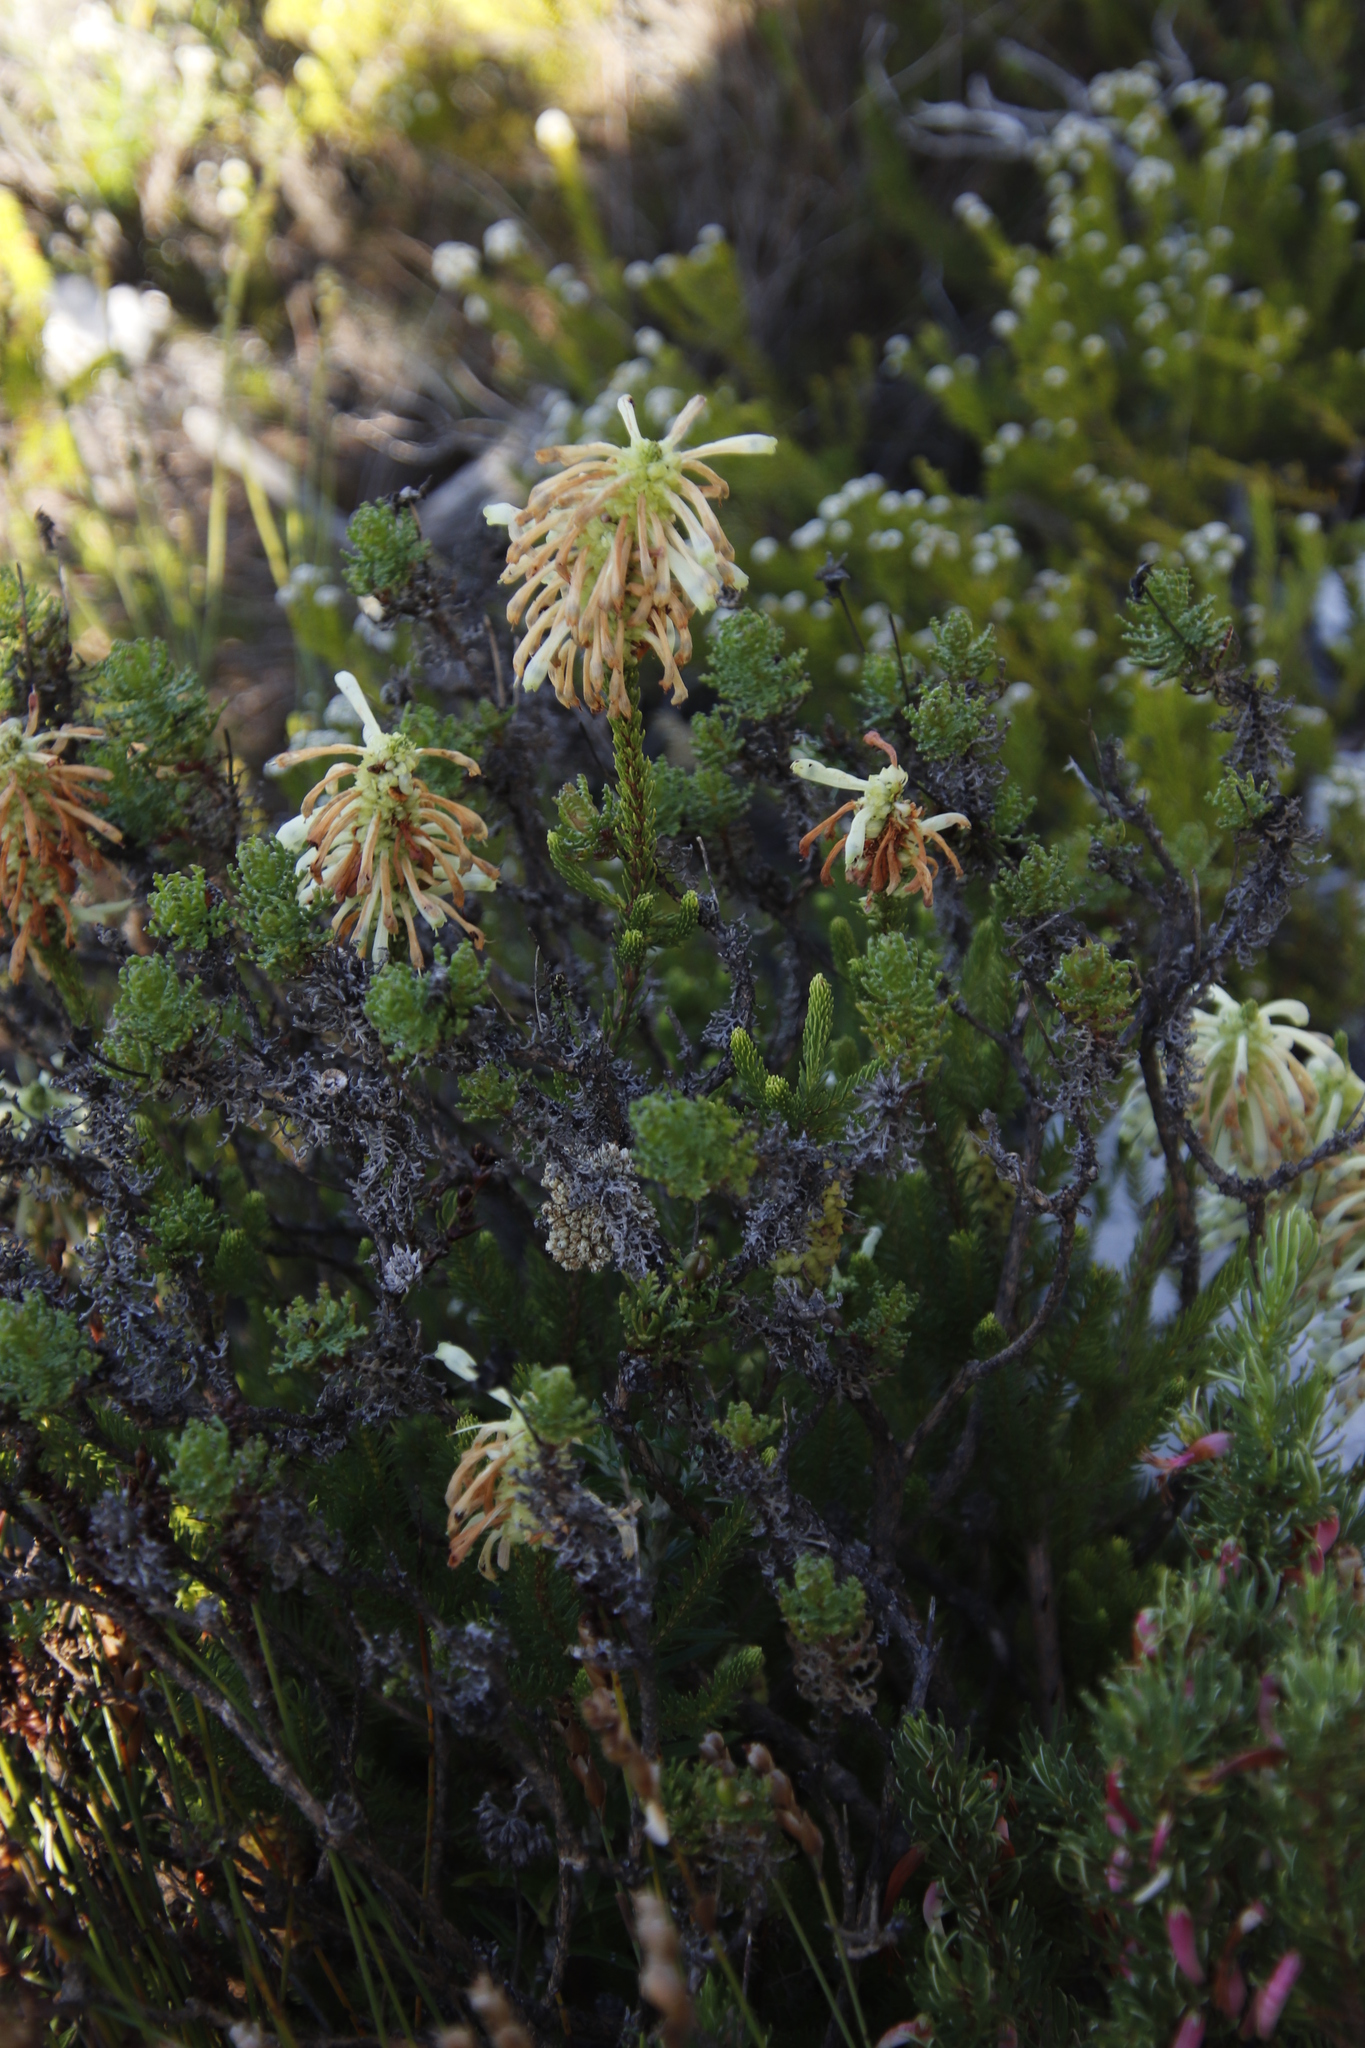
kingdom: Plantae
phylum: Tracheophyta
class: Magnoliopsida
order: Ericales
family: Ericaceae
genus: Erica
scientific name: Erica sessiliflora
